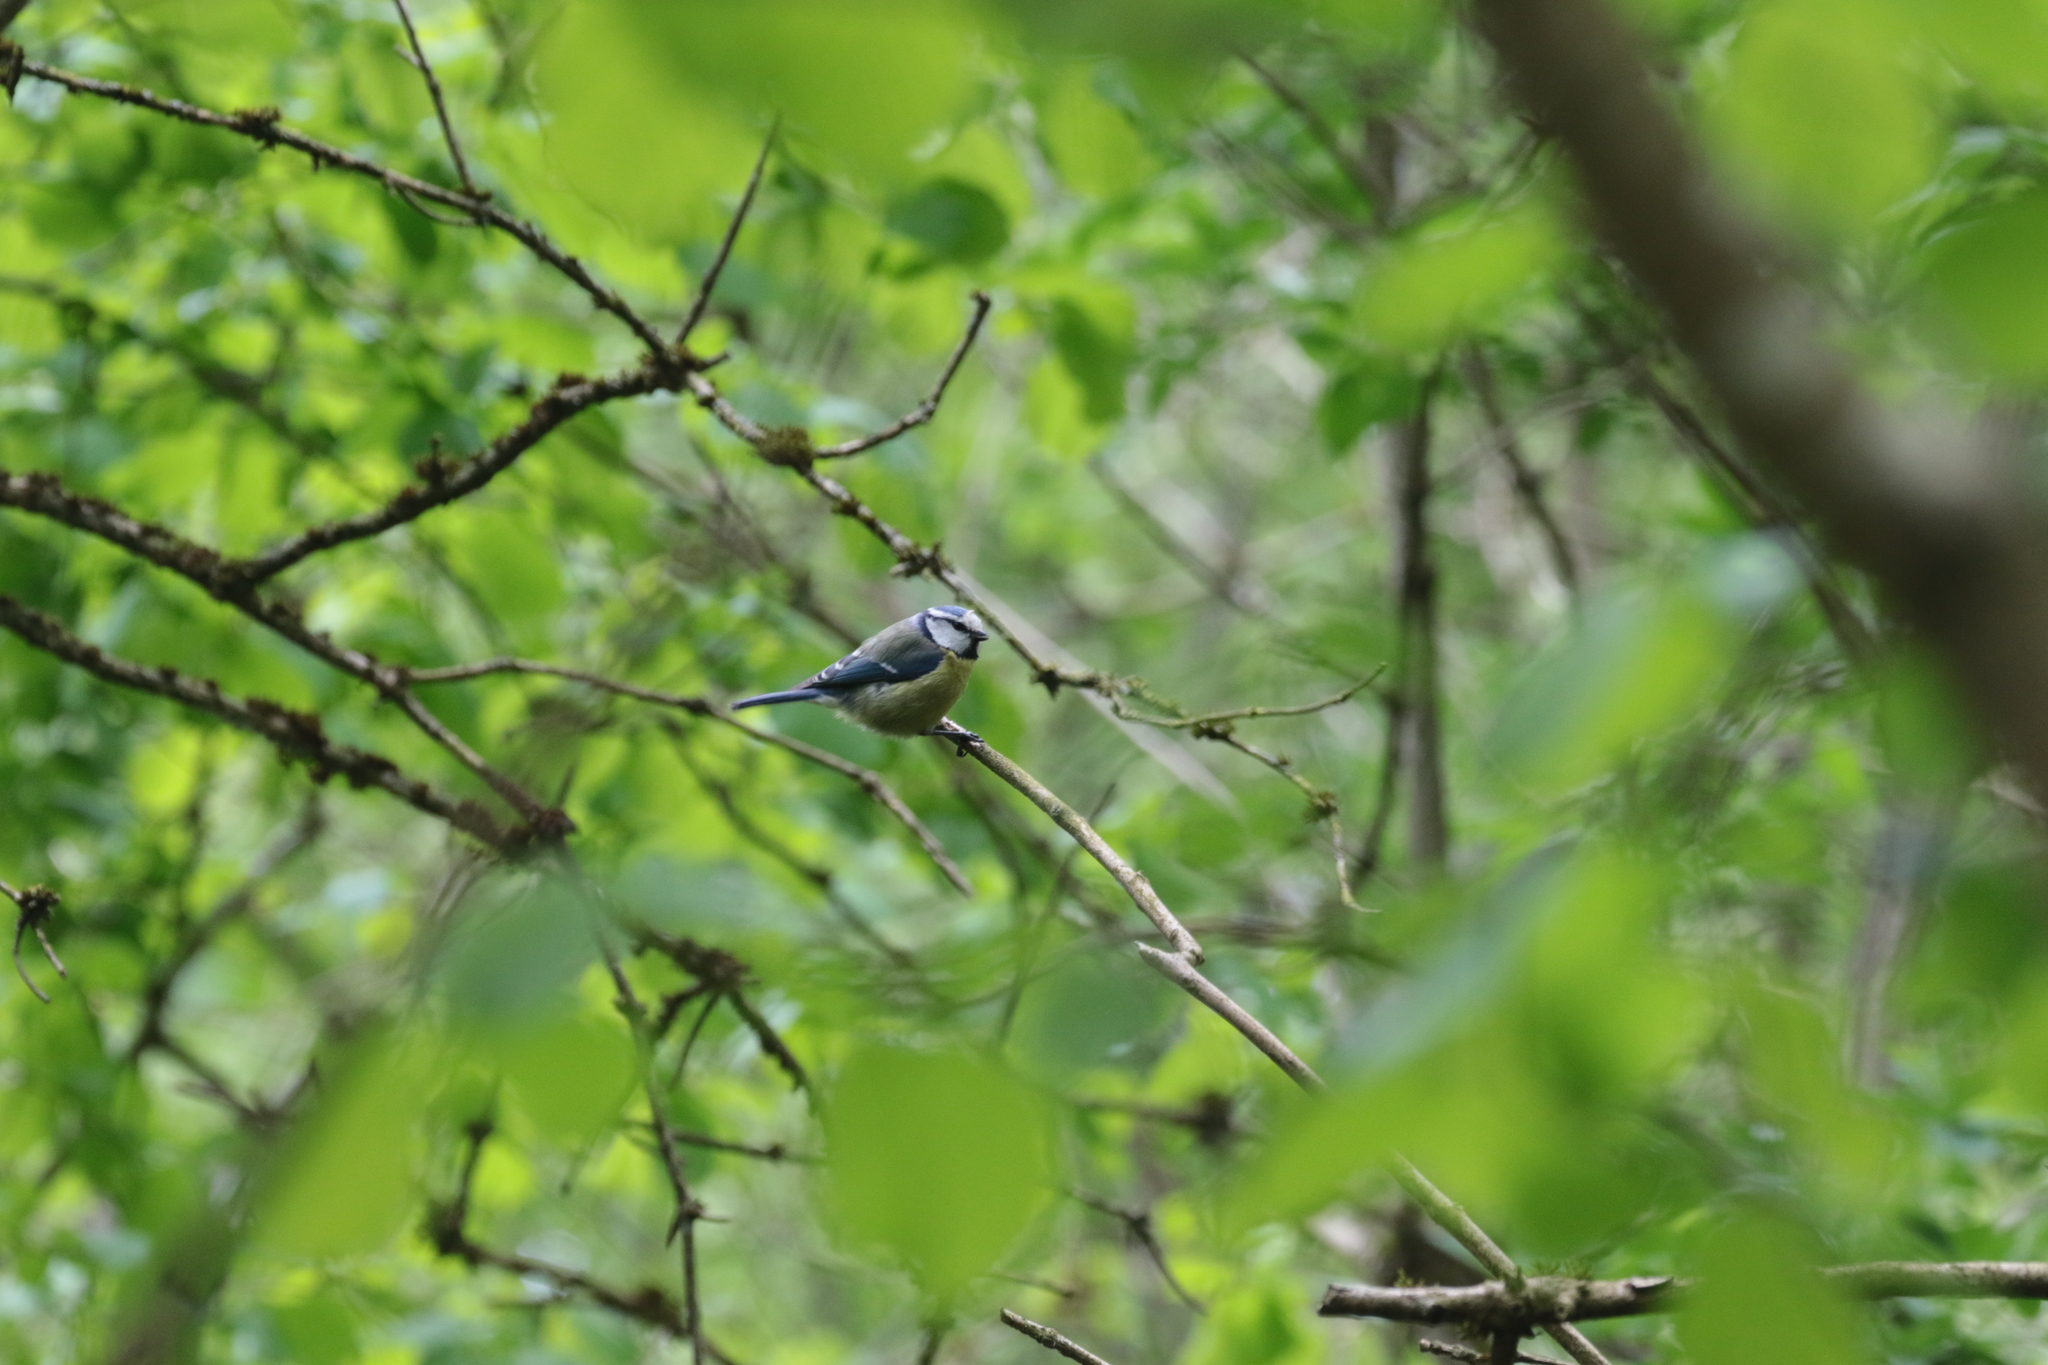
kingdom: Animalia
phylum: Chordata
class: Aves
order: Passeriformes
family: Paridae
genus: Cyanistes
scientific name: Cyanistes caeruleus
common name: Eurasian blue tit
